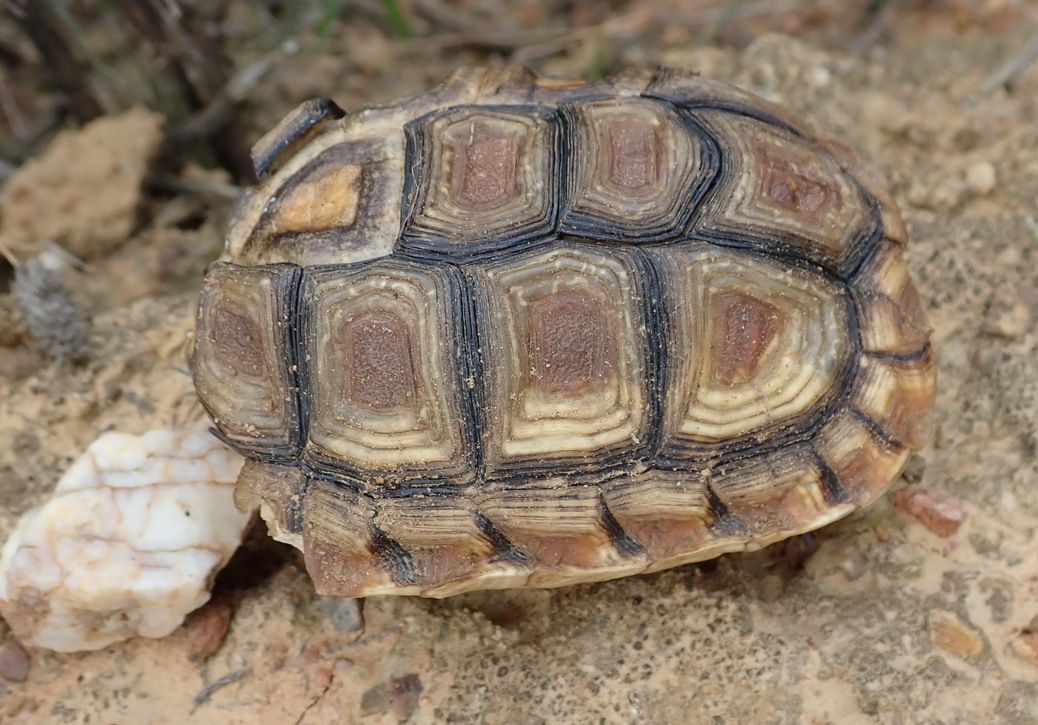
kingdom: Animalia
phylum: Chordata
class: Testudines
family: Testudinidae
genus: Homopus
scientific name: Homopus areolatus
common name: Parrot-beaked tortoise
